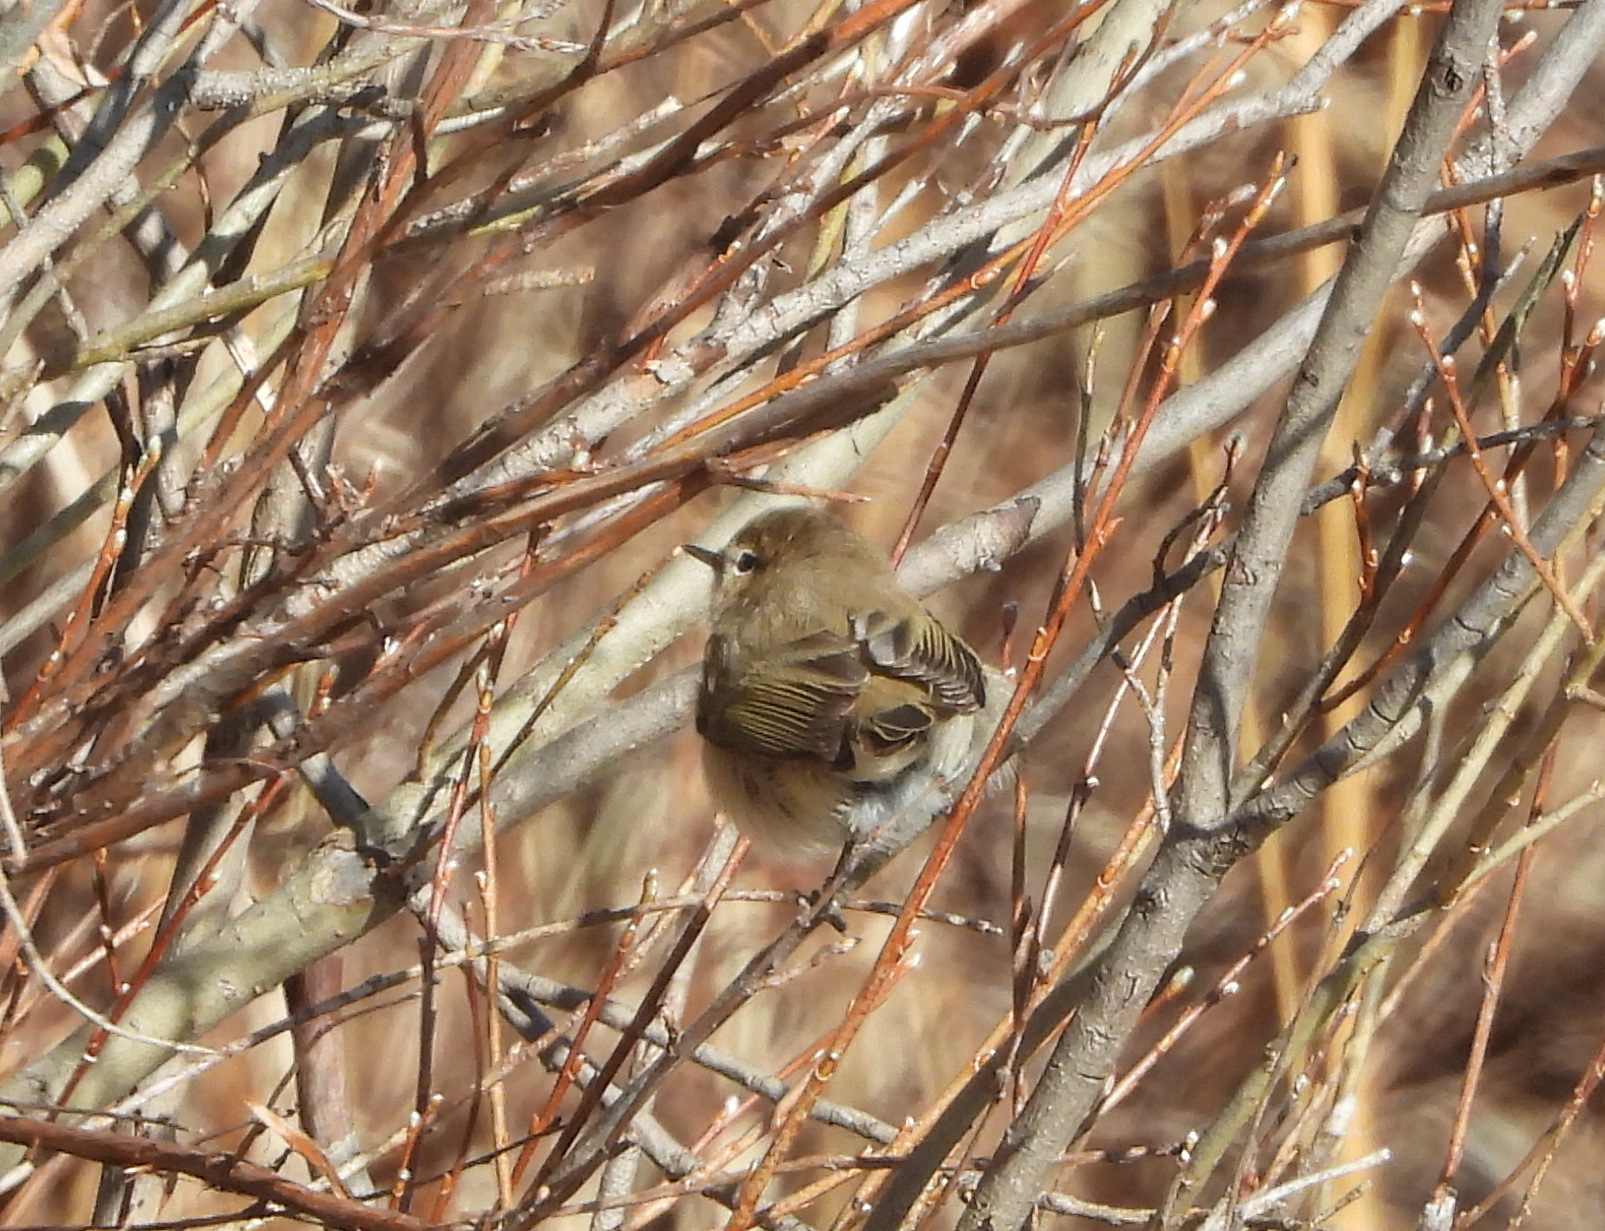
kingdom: Animalia
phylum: Chordata
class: Aves
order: Passeriformes
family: Phylloscopidae
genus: Phylloscopus
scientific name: Phylloscopus collybita
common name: Common chiffchaff
